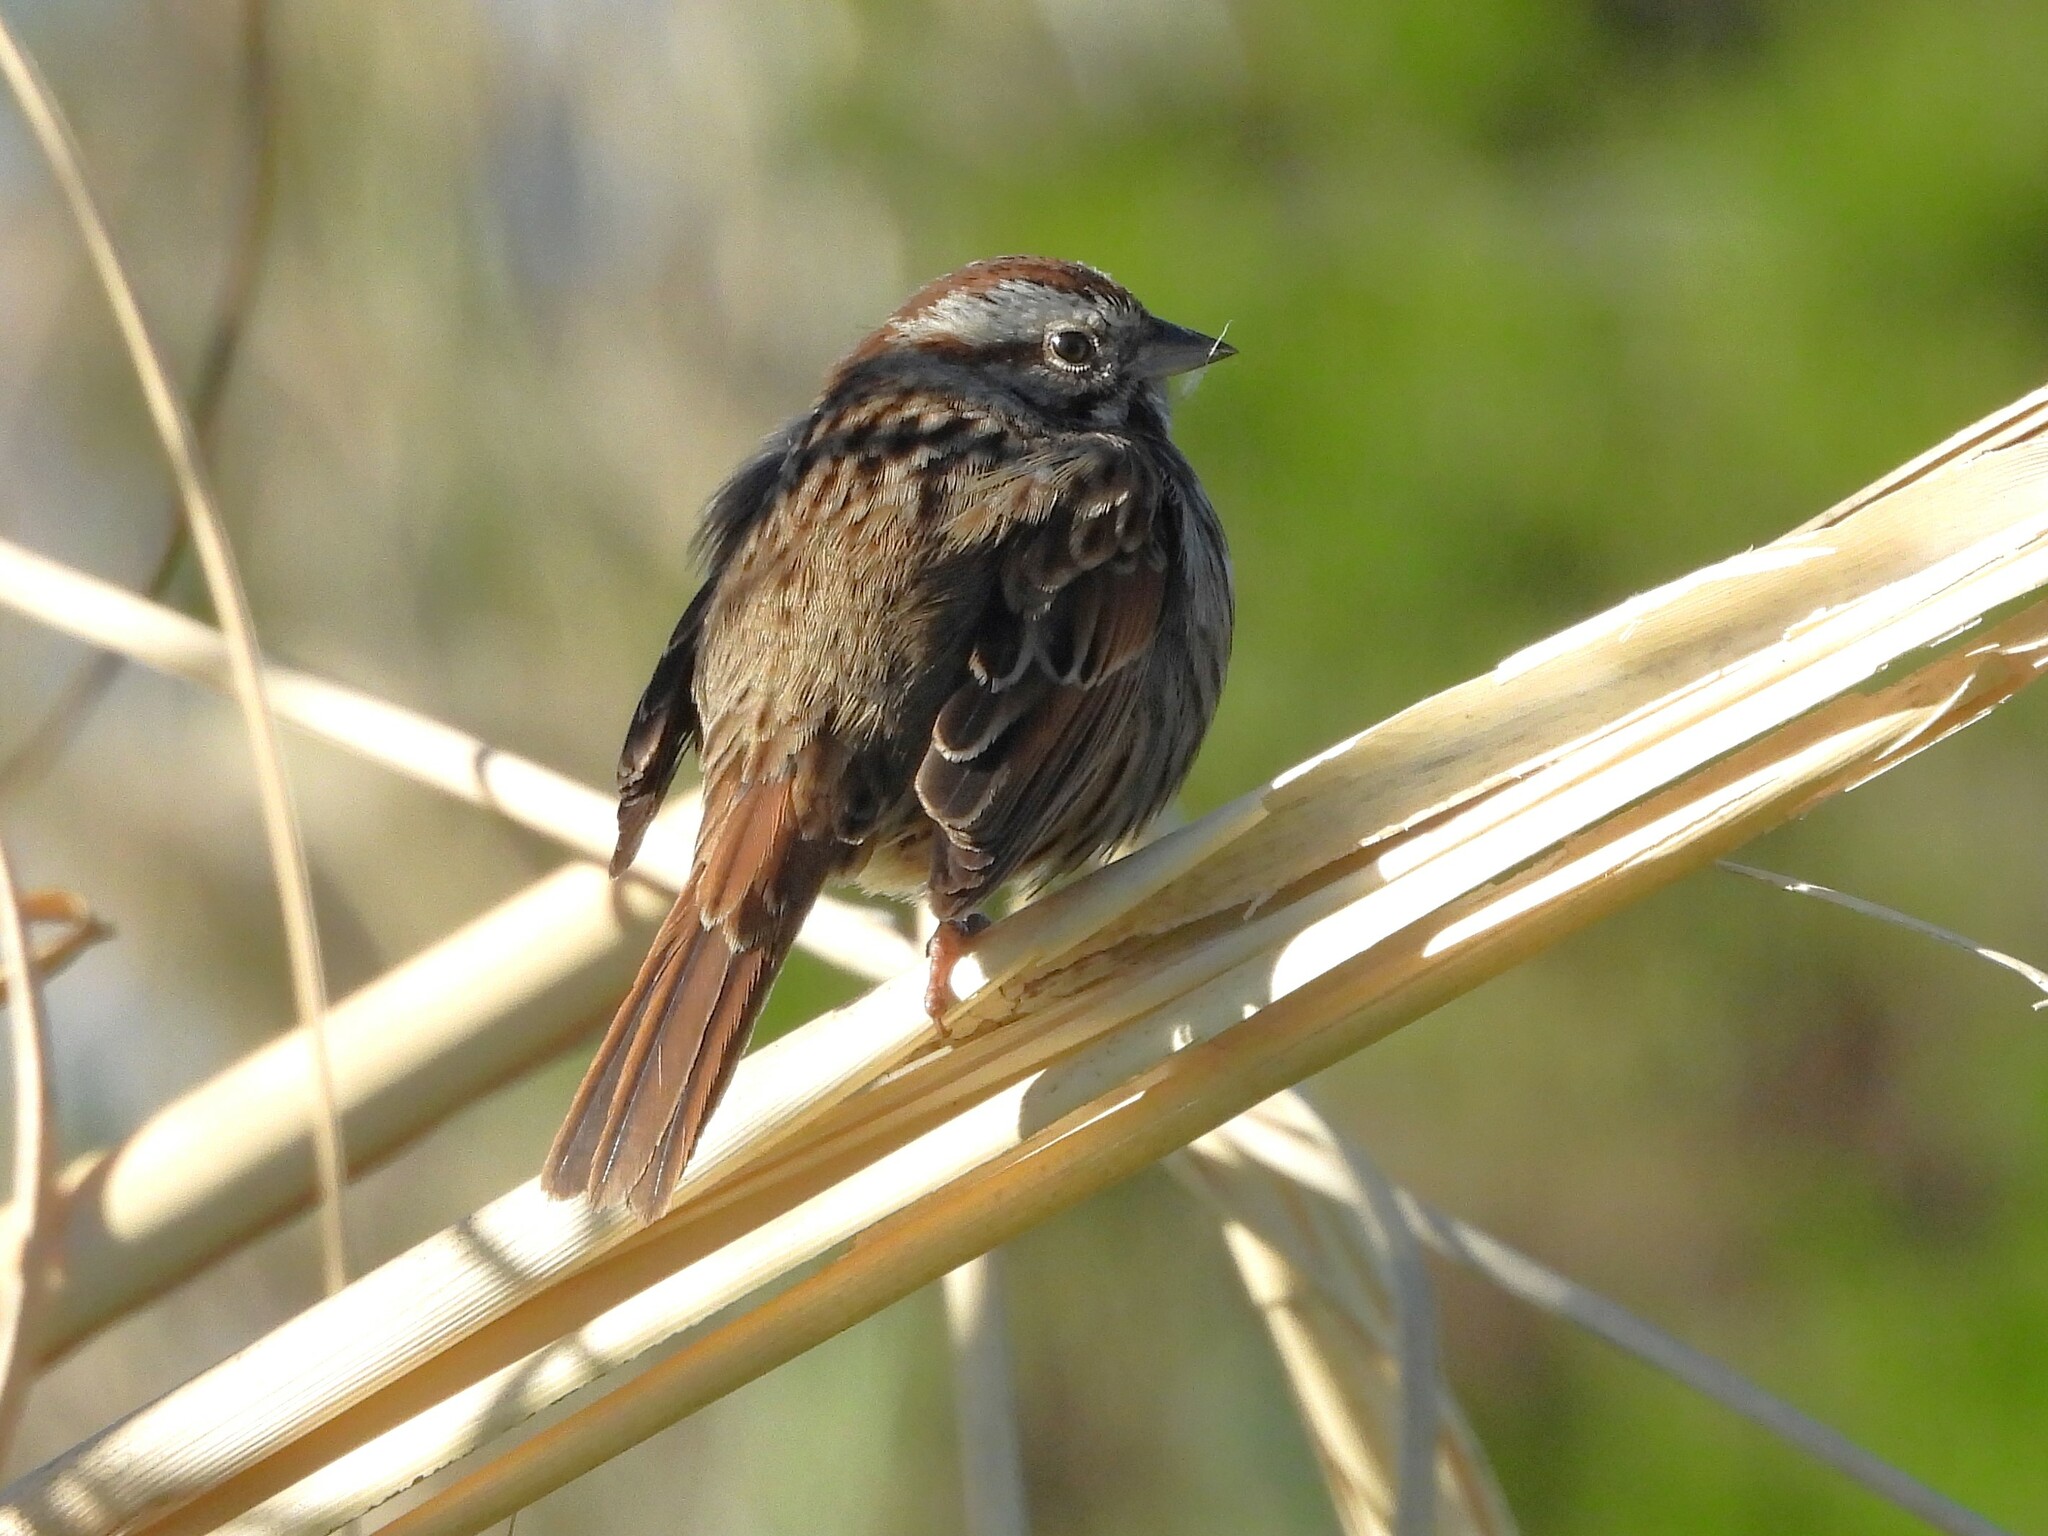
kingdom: Animalia
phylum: Chordata
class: Aves
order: Passeriformes
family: Passerellidae
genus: Melospiza
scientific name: Melospiza melodia
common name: Song sparrow
